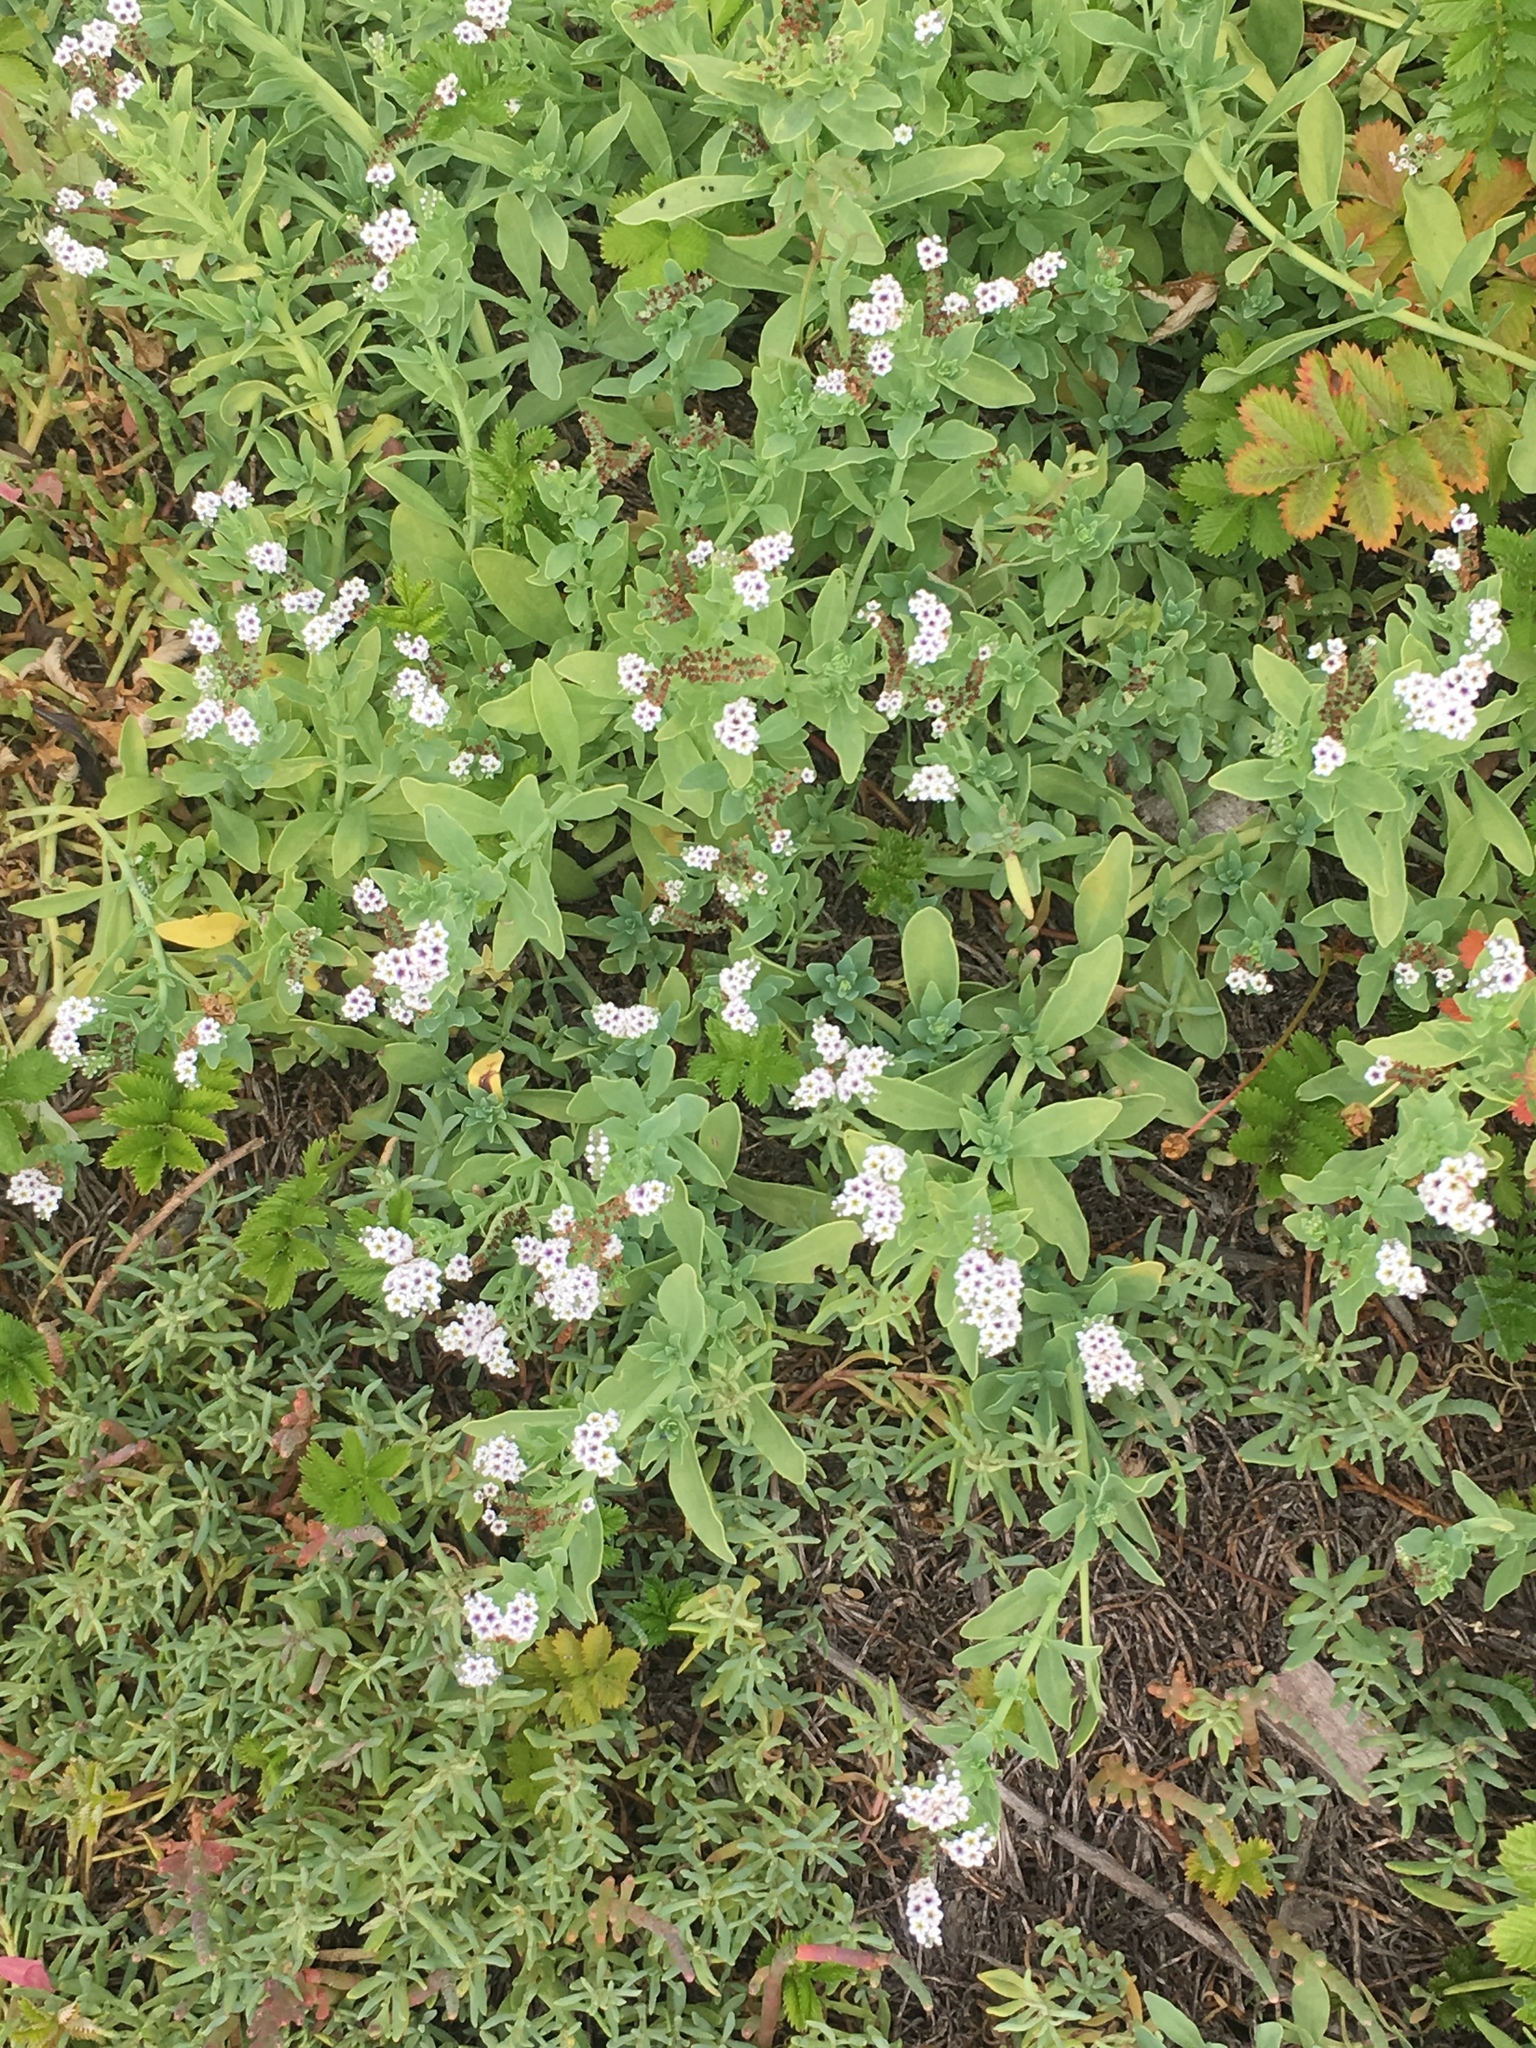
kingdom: Plantae
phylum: Tracheophyta
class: Magnoliopsida
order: Boraginales
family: Heliotropiaceae
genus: Heliotropium
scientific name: Heliotropium curassavicum
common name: Seaside heliotrope
